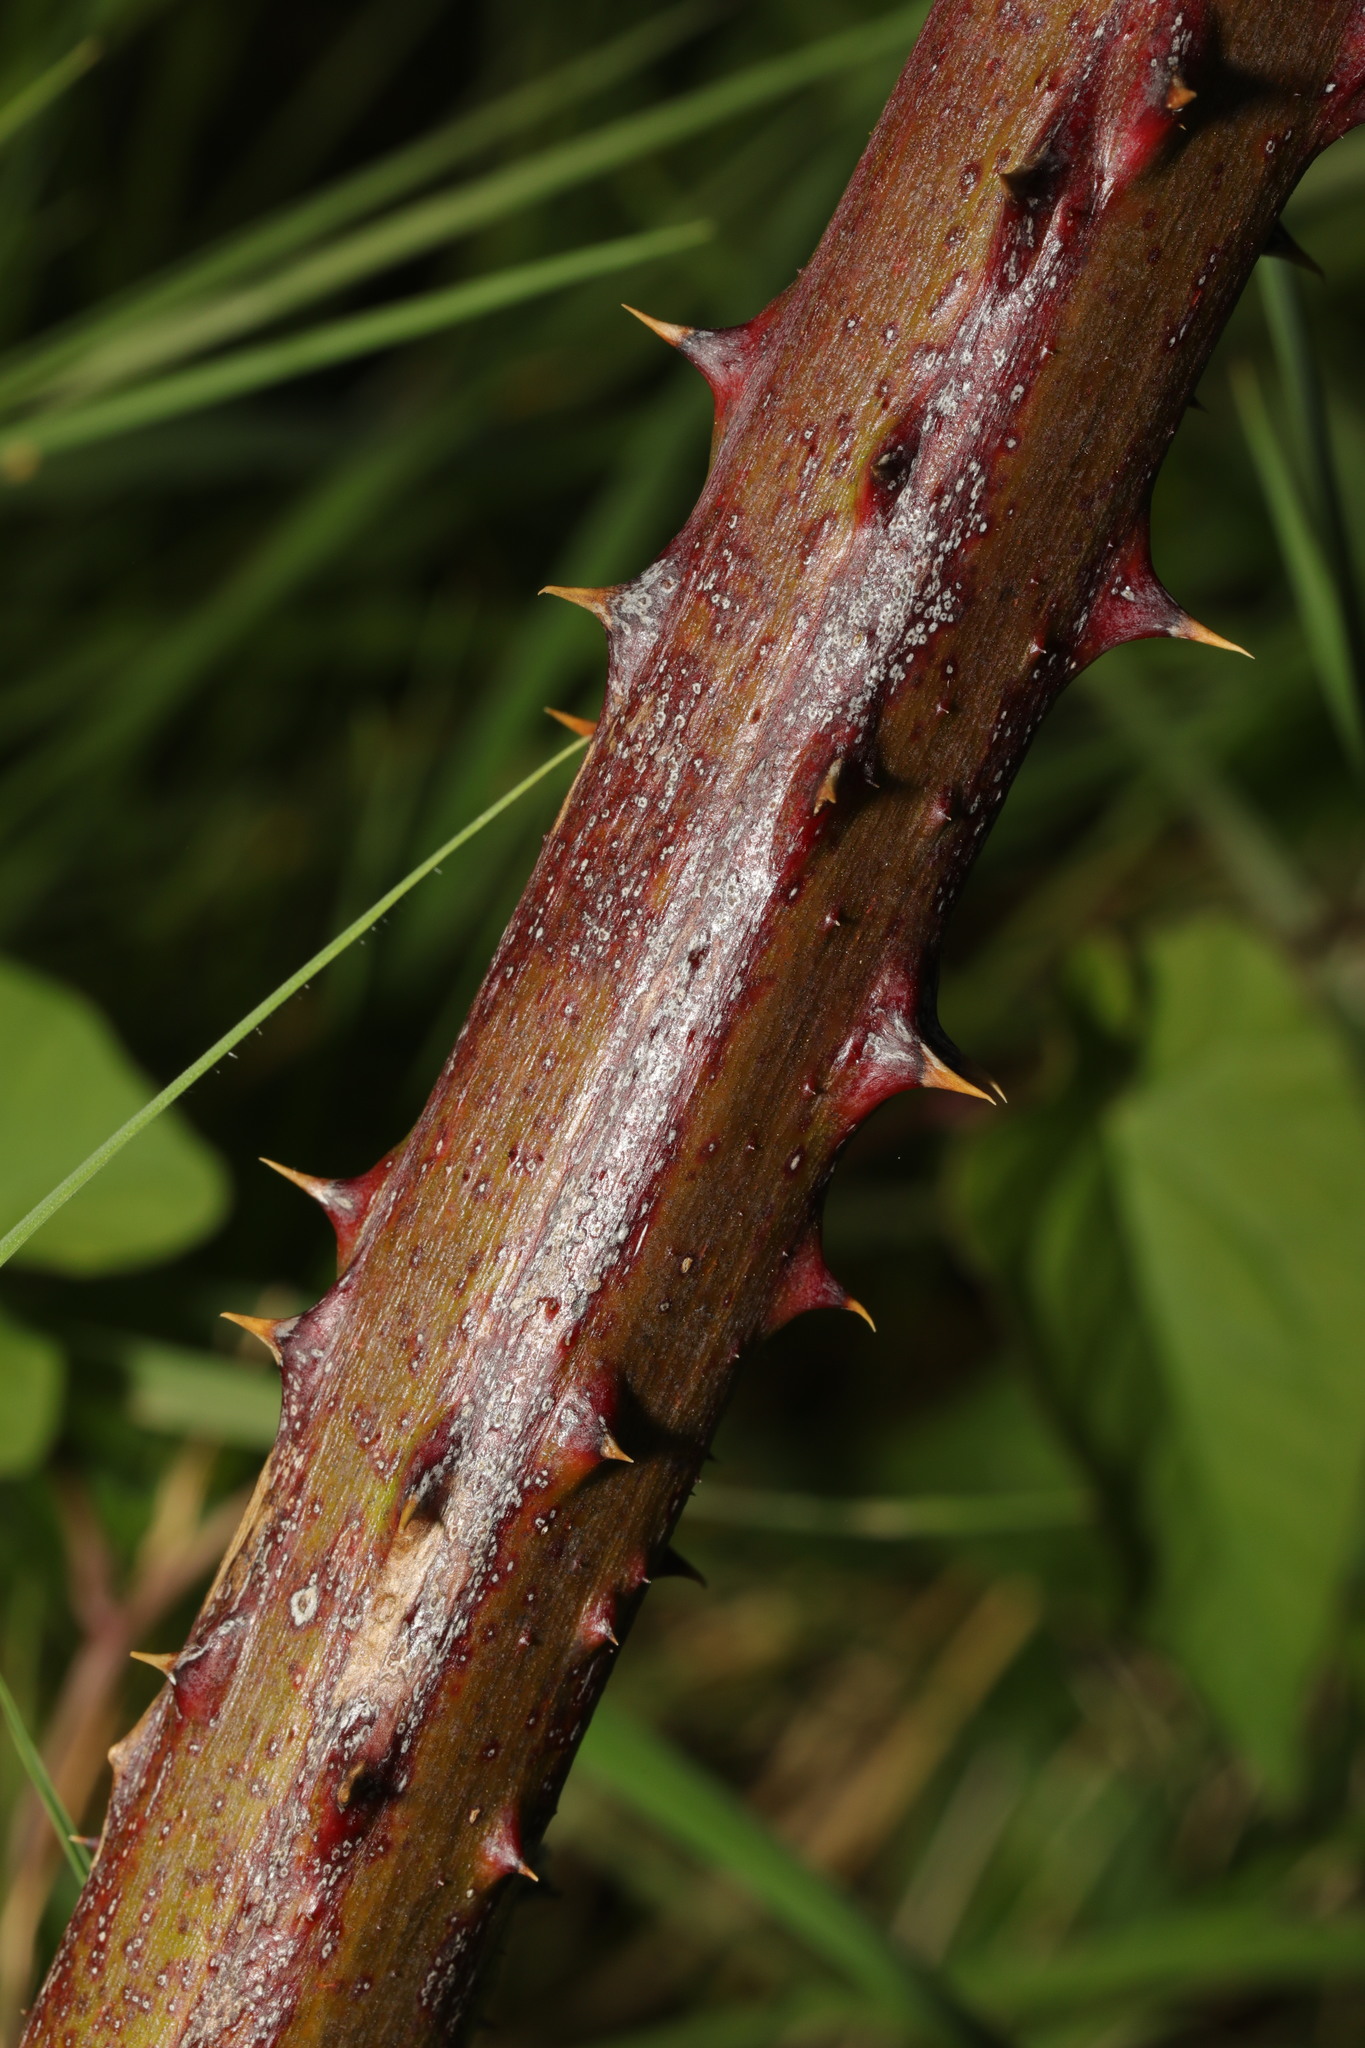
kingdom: Plantae
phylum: Tracheophyta
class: Magnoliopsida
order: Rosales
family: Rosaceae
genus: Rubus
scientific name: Rubus armeniacus
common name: Himalayan blackberry
